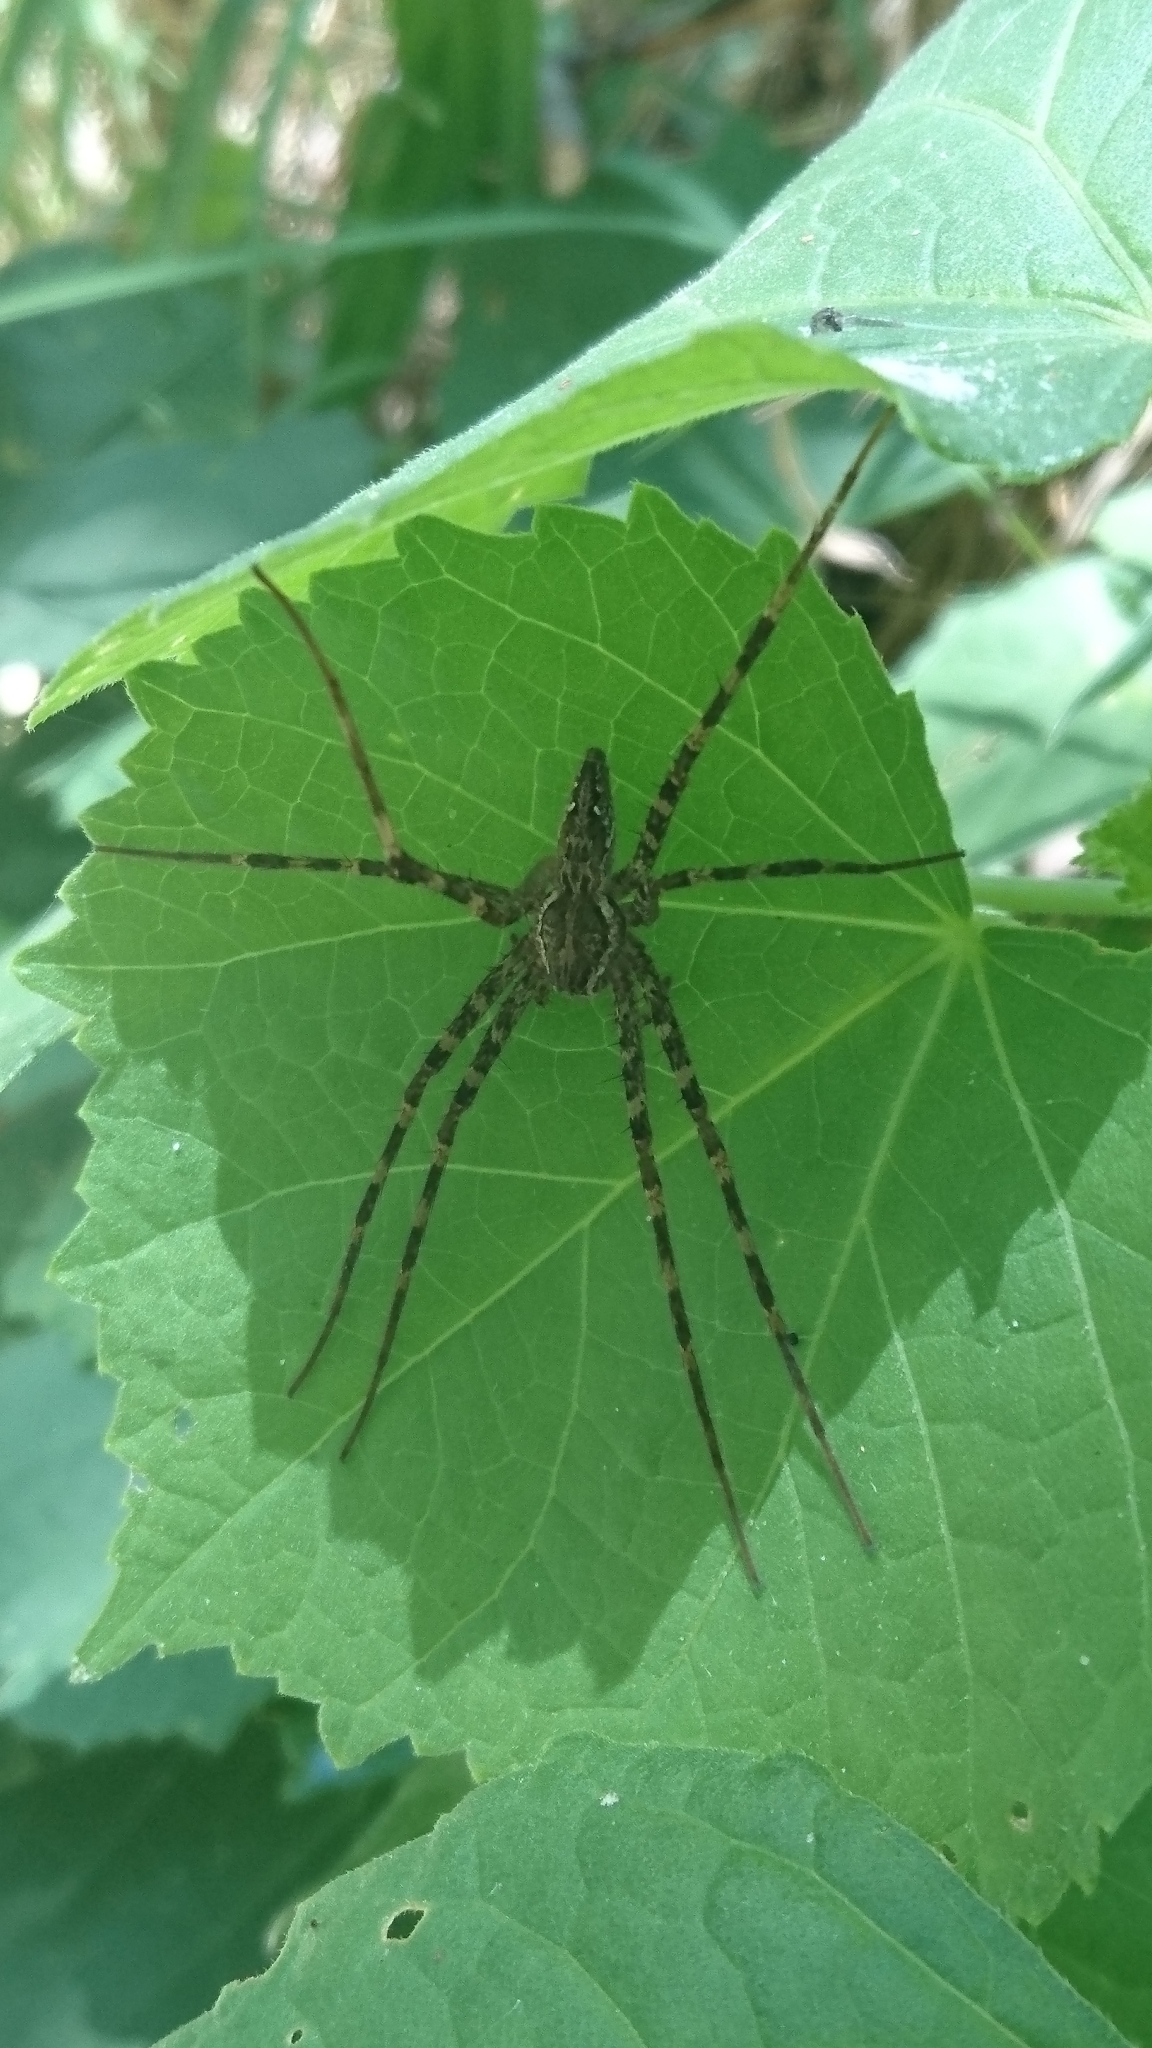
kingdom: Animalia
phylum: Arthropoda
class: Arachnida
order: Araneae
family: Pisauridae
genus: Megadolomedes
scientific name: Megadolomedes trux
